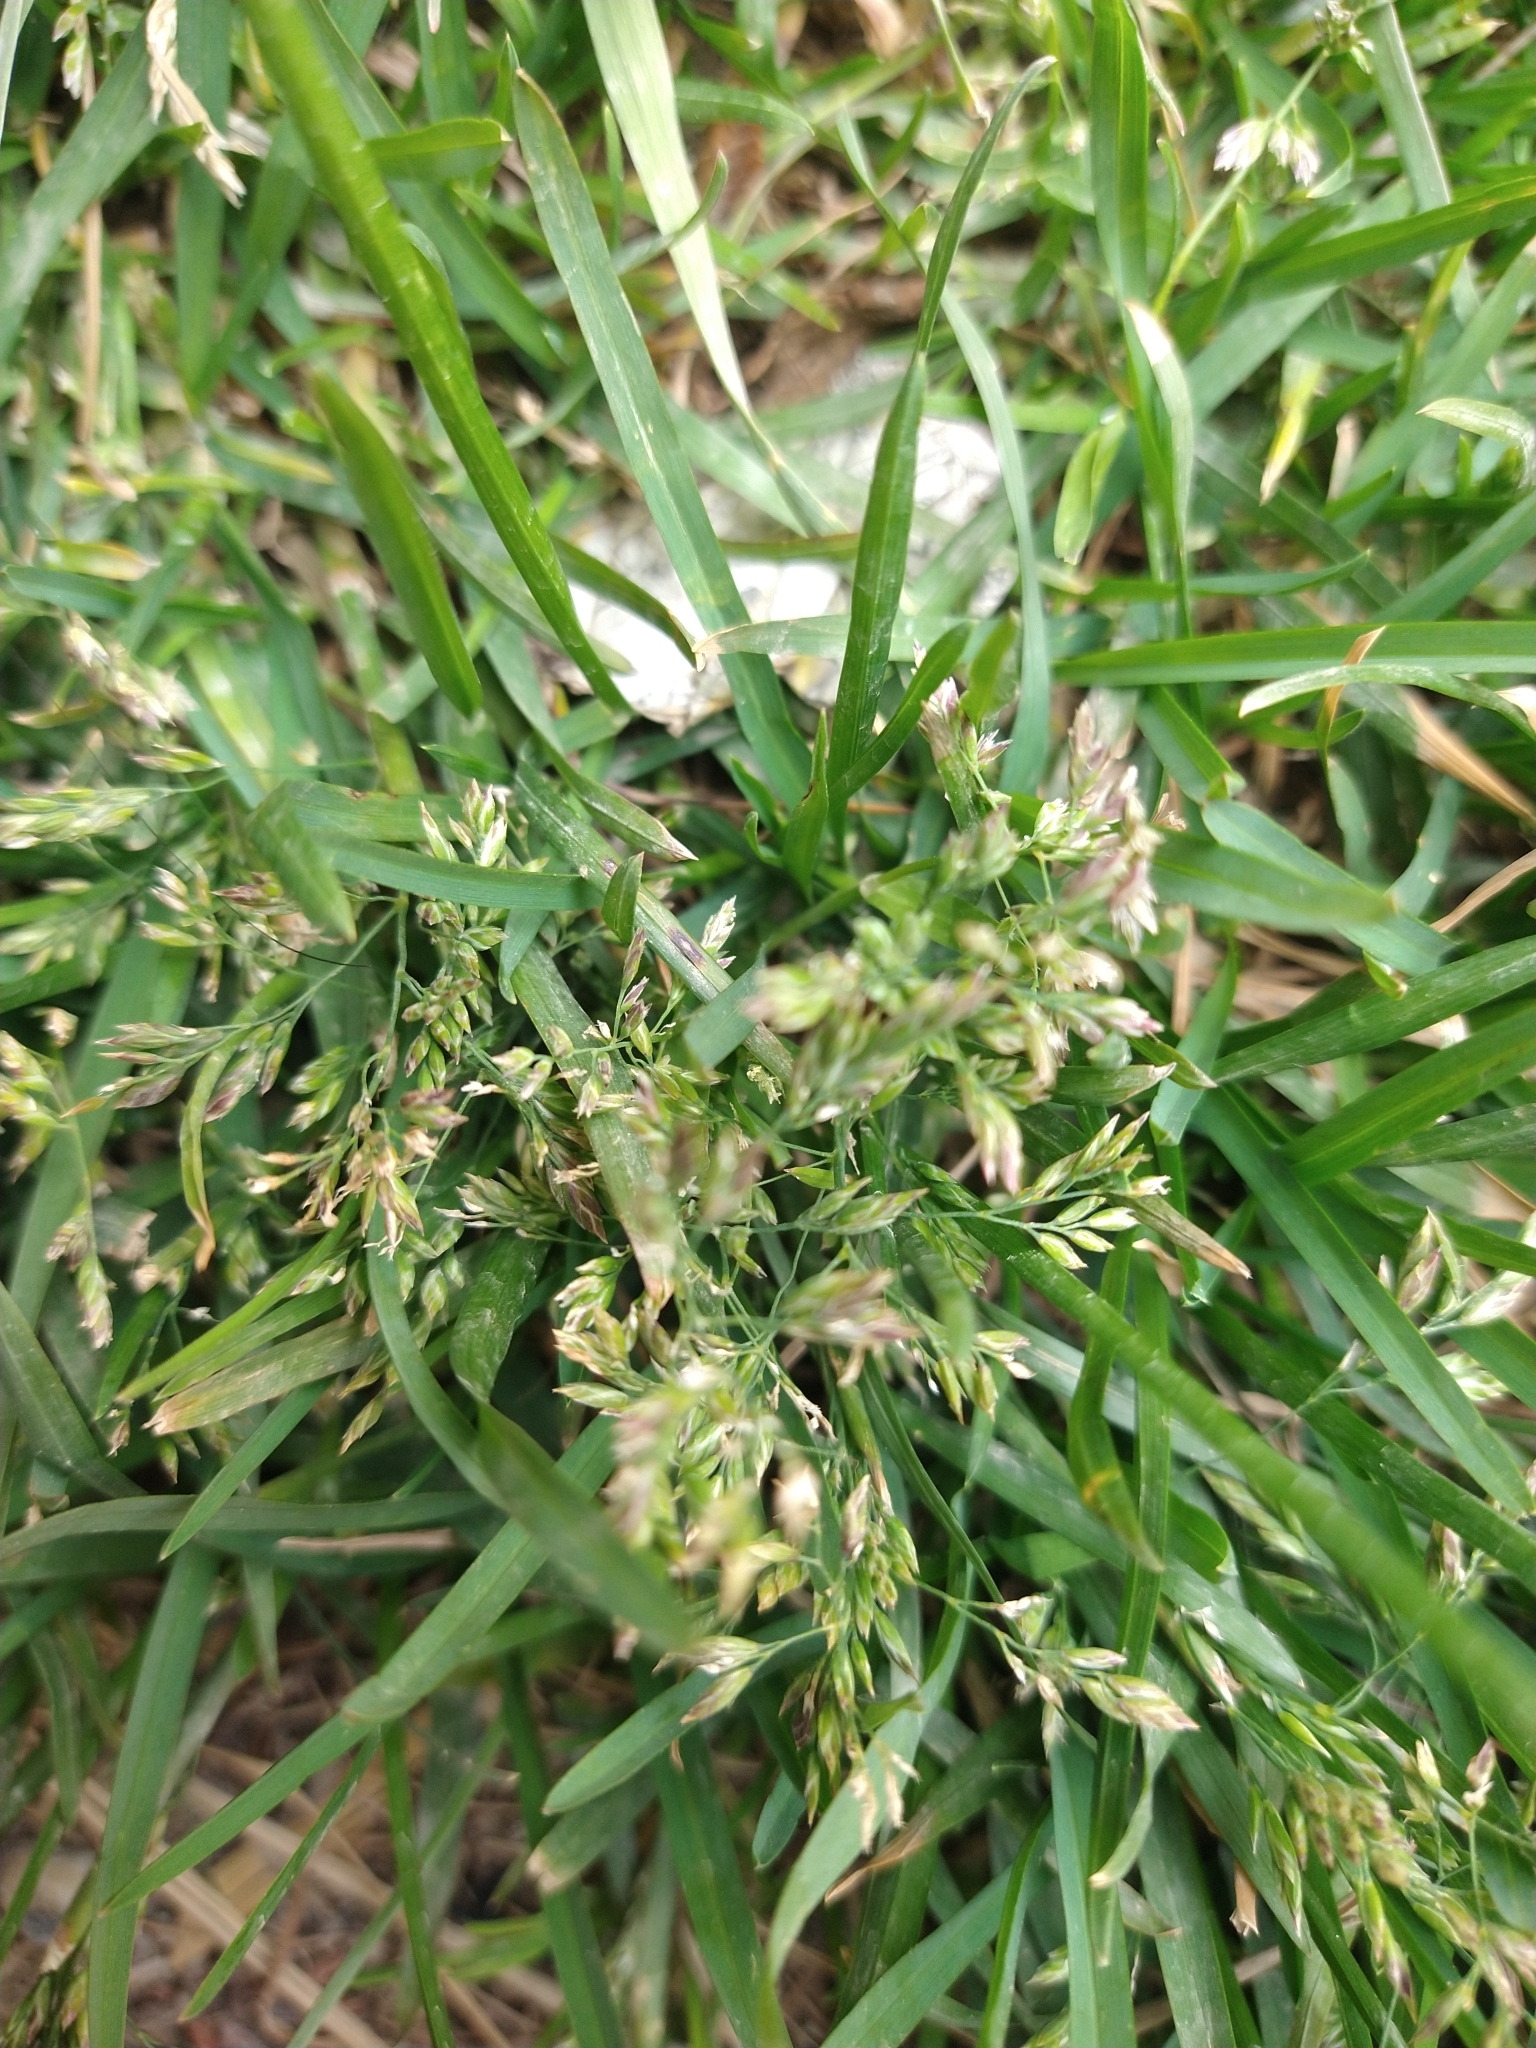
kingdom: Plantae
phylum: Tracheophyta
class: Liliopsida
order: Poales
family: Poaceae
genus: Poa
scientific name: Poa annua
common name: Annual bluegrass
